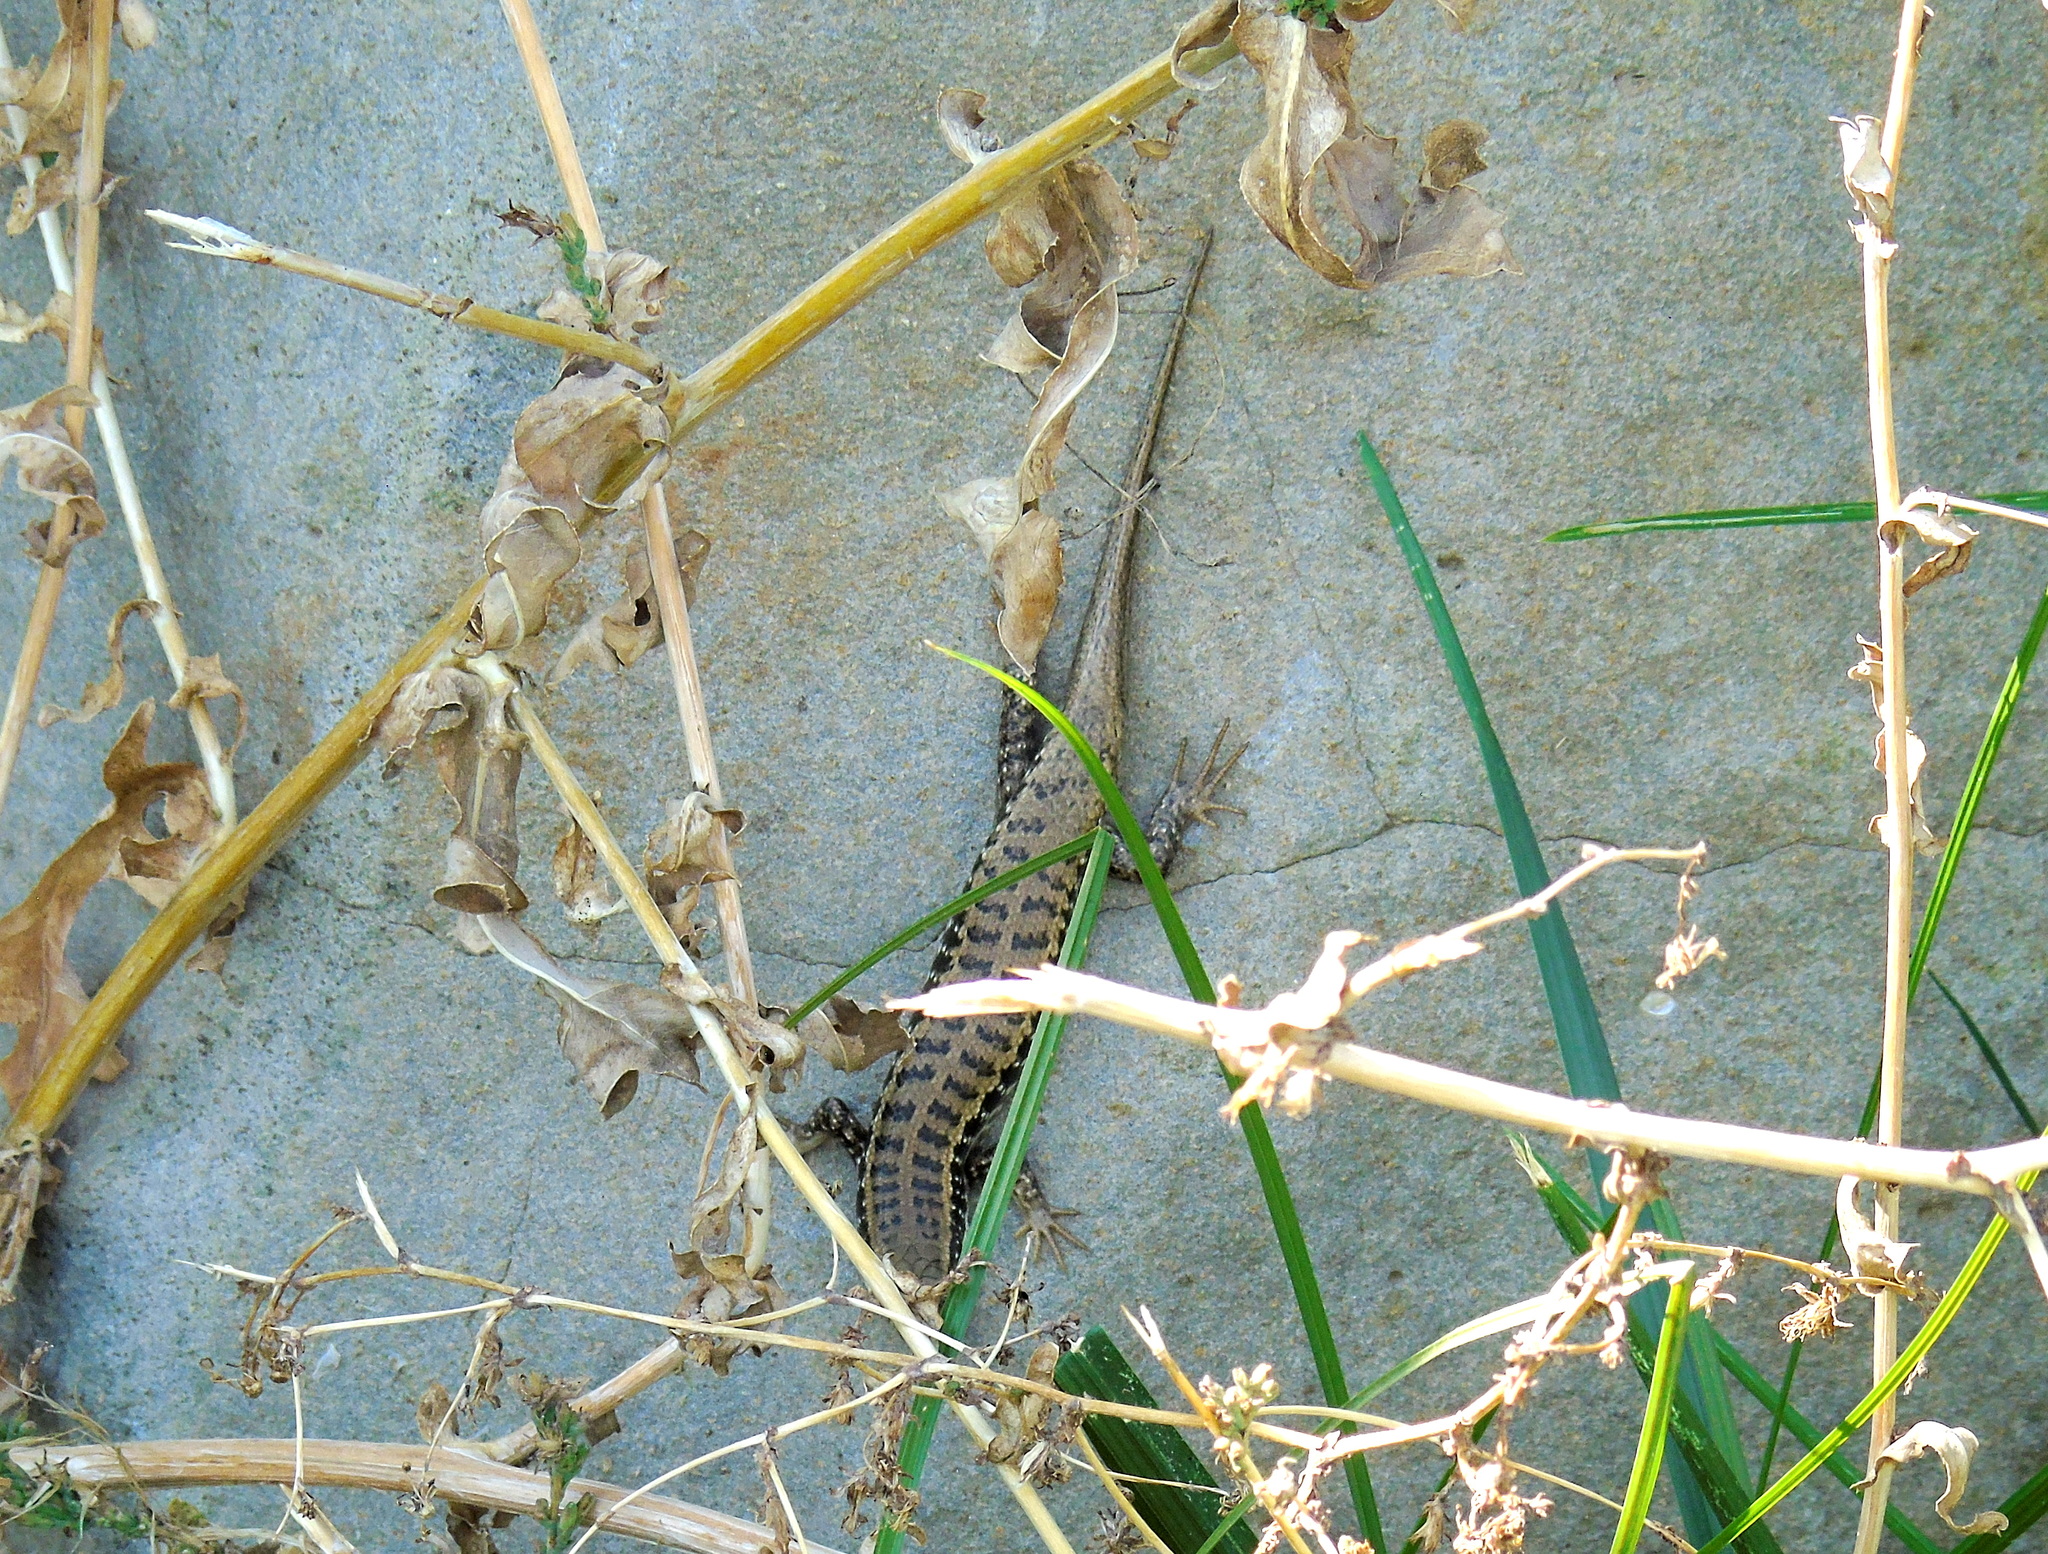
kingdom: Animalia
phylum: Chordata
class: Squamata
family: Scincidae
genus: Heremites
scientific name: Heremites auratus
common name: Golden grass mabuya
